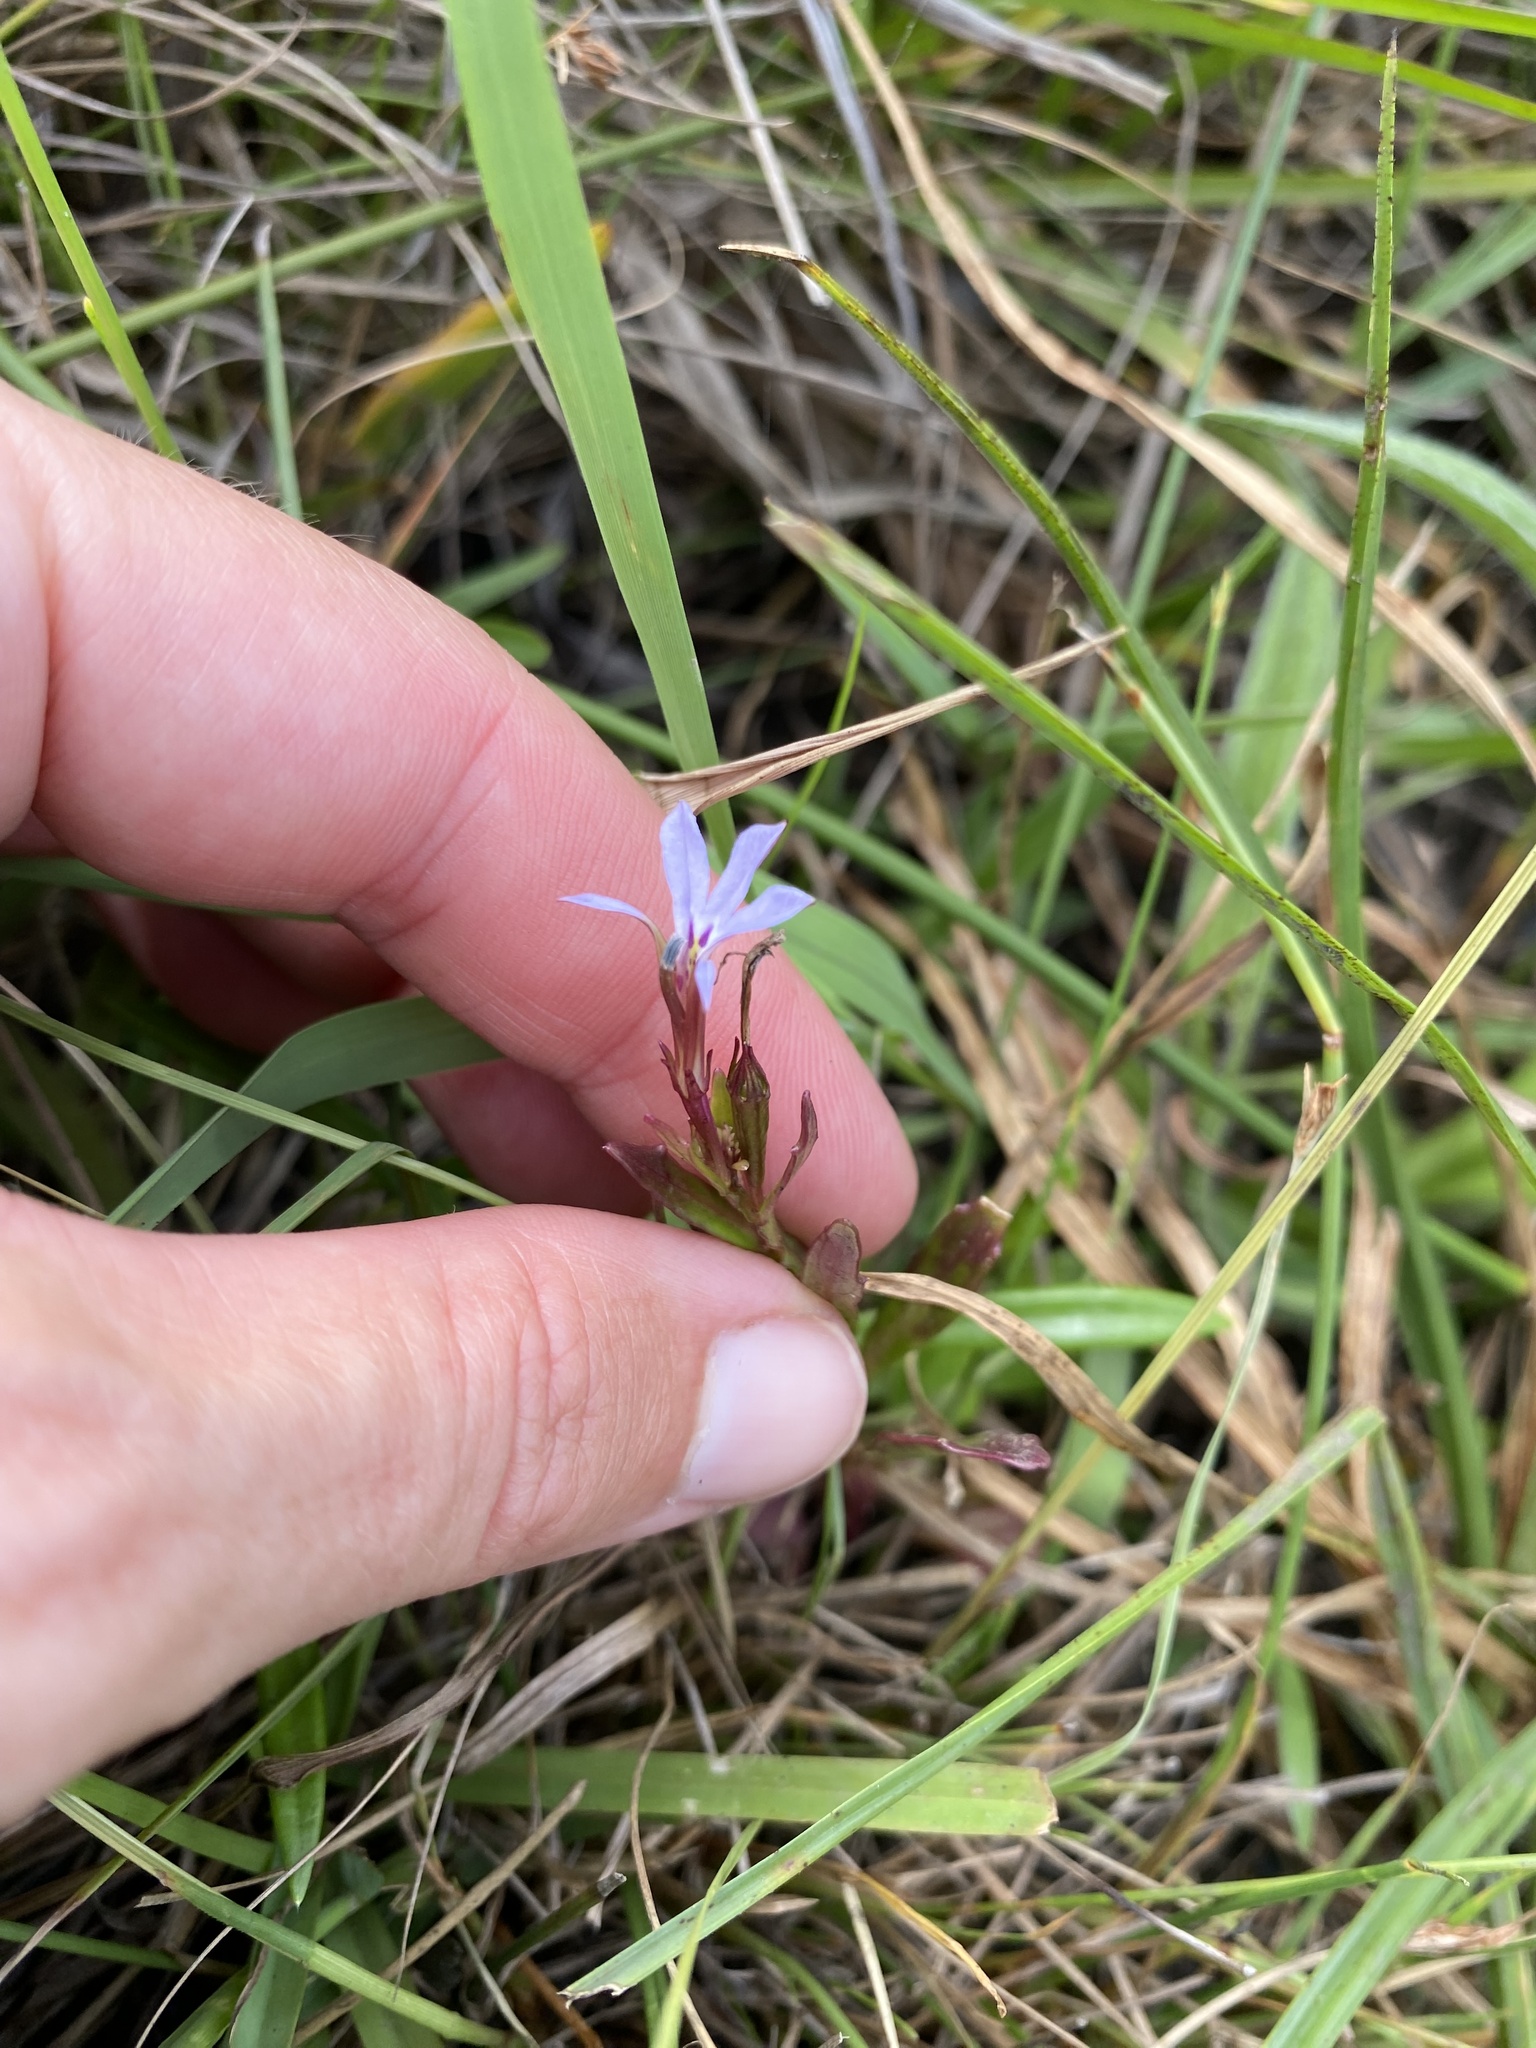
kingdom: Plantae
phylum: Tracheophyta
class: Magnoliopsida
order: Asterales
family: Campanulaceae
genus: Lobelia
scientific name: Lobelia anceps
